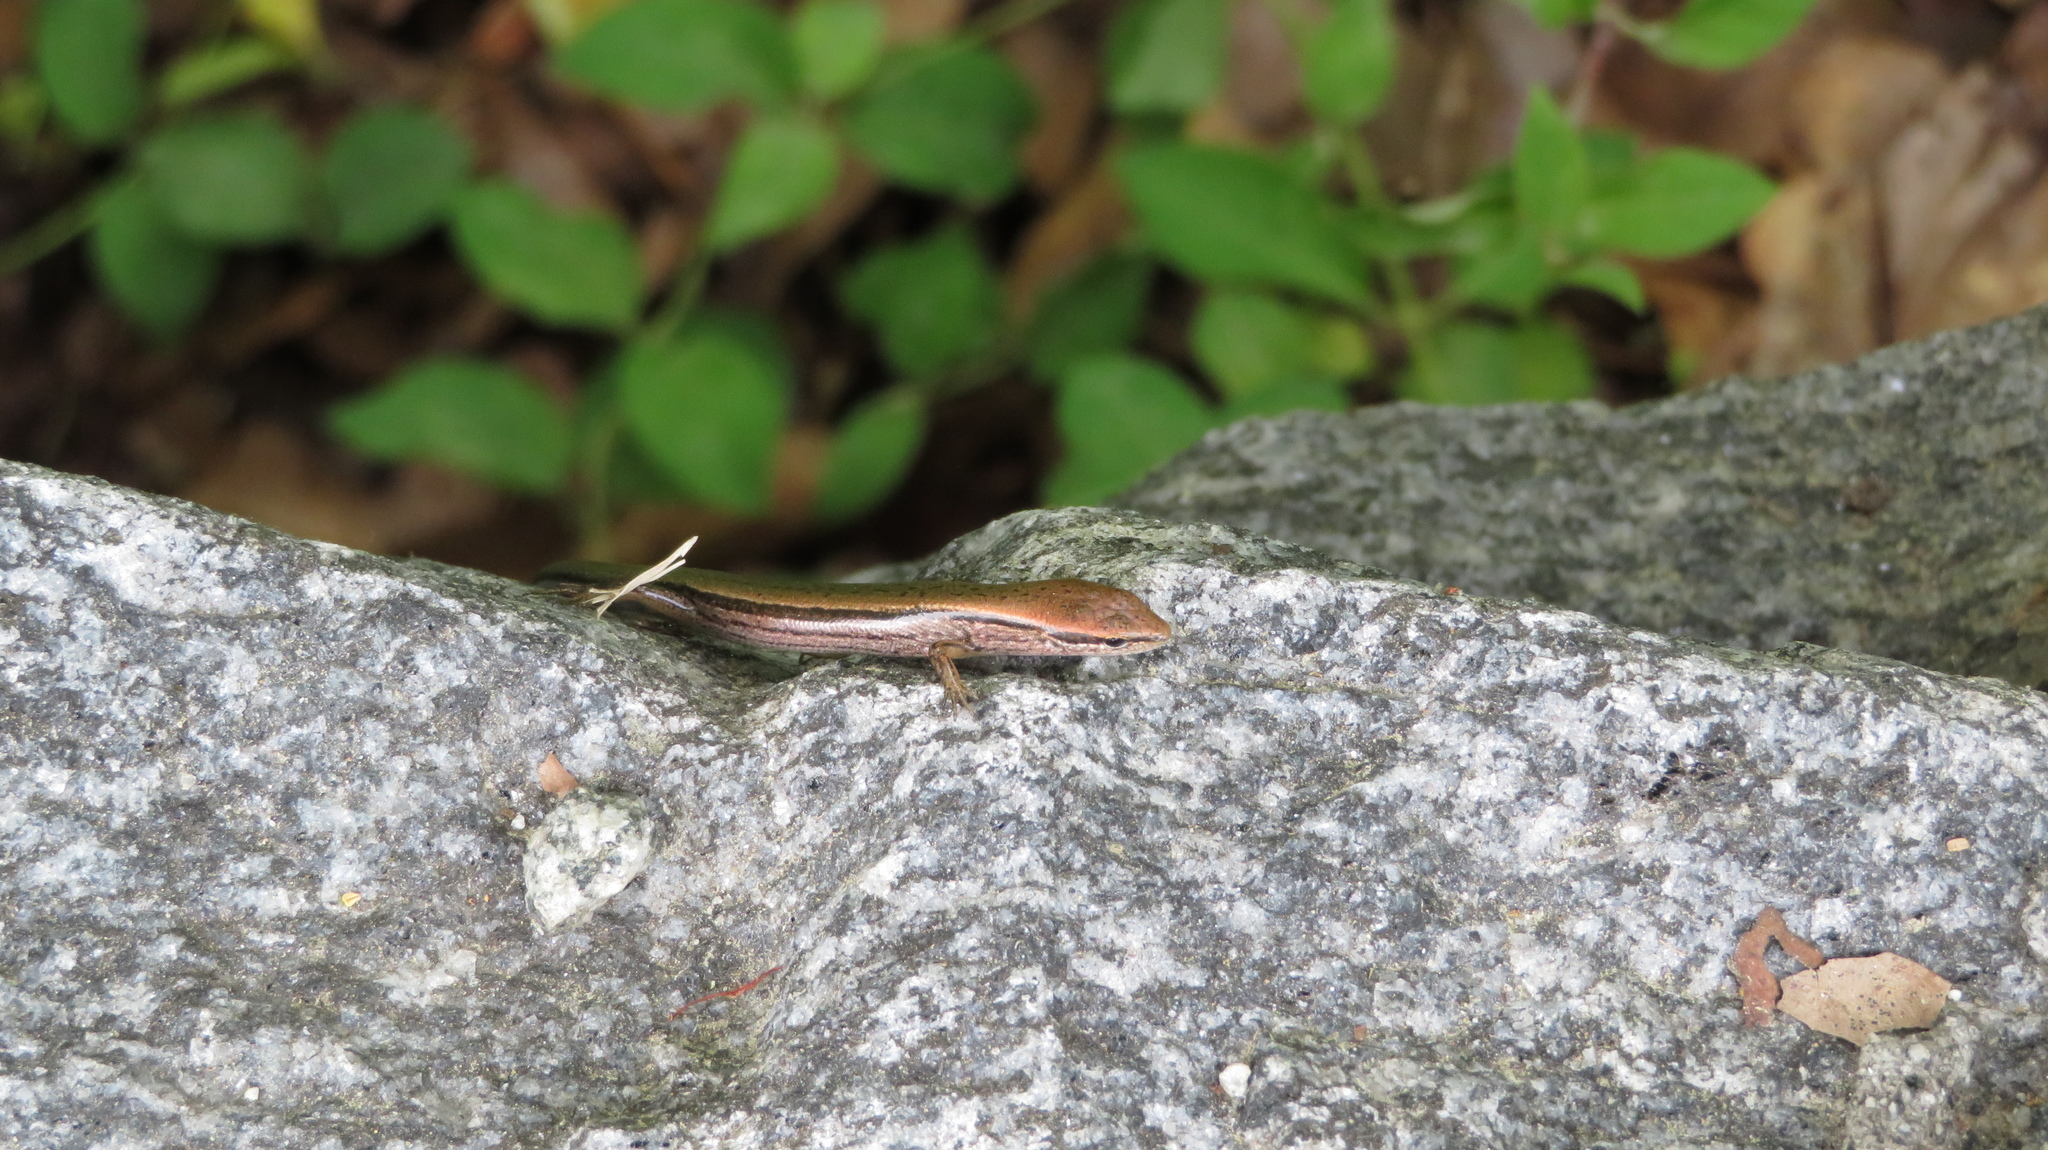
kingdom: Animalia
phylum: Chordata
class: Squamata
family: Scincidae
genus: Scincella
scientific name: Scincella lateralis
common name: Ground skink
